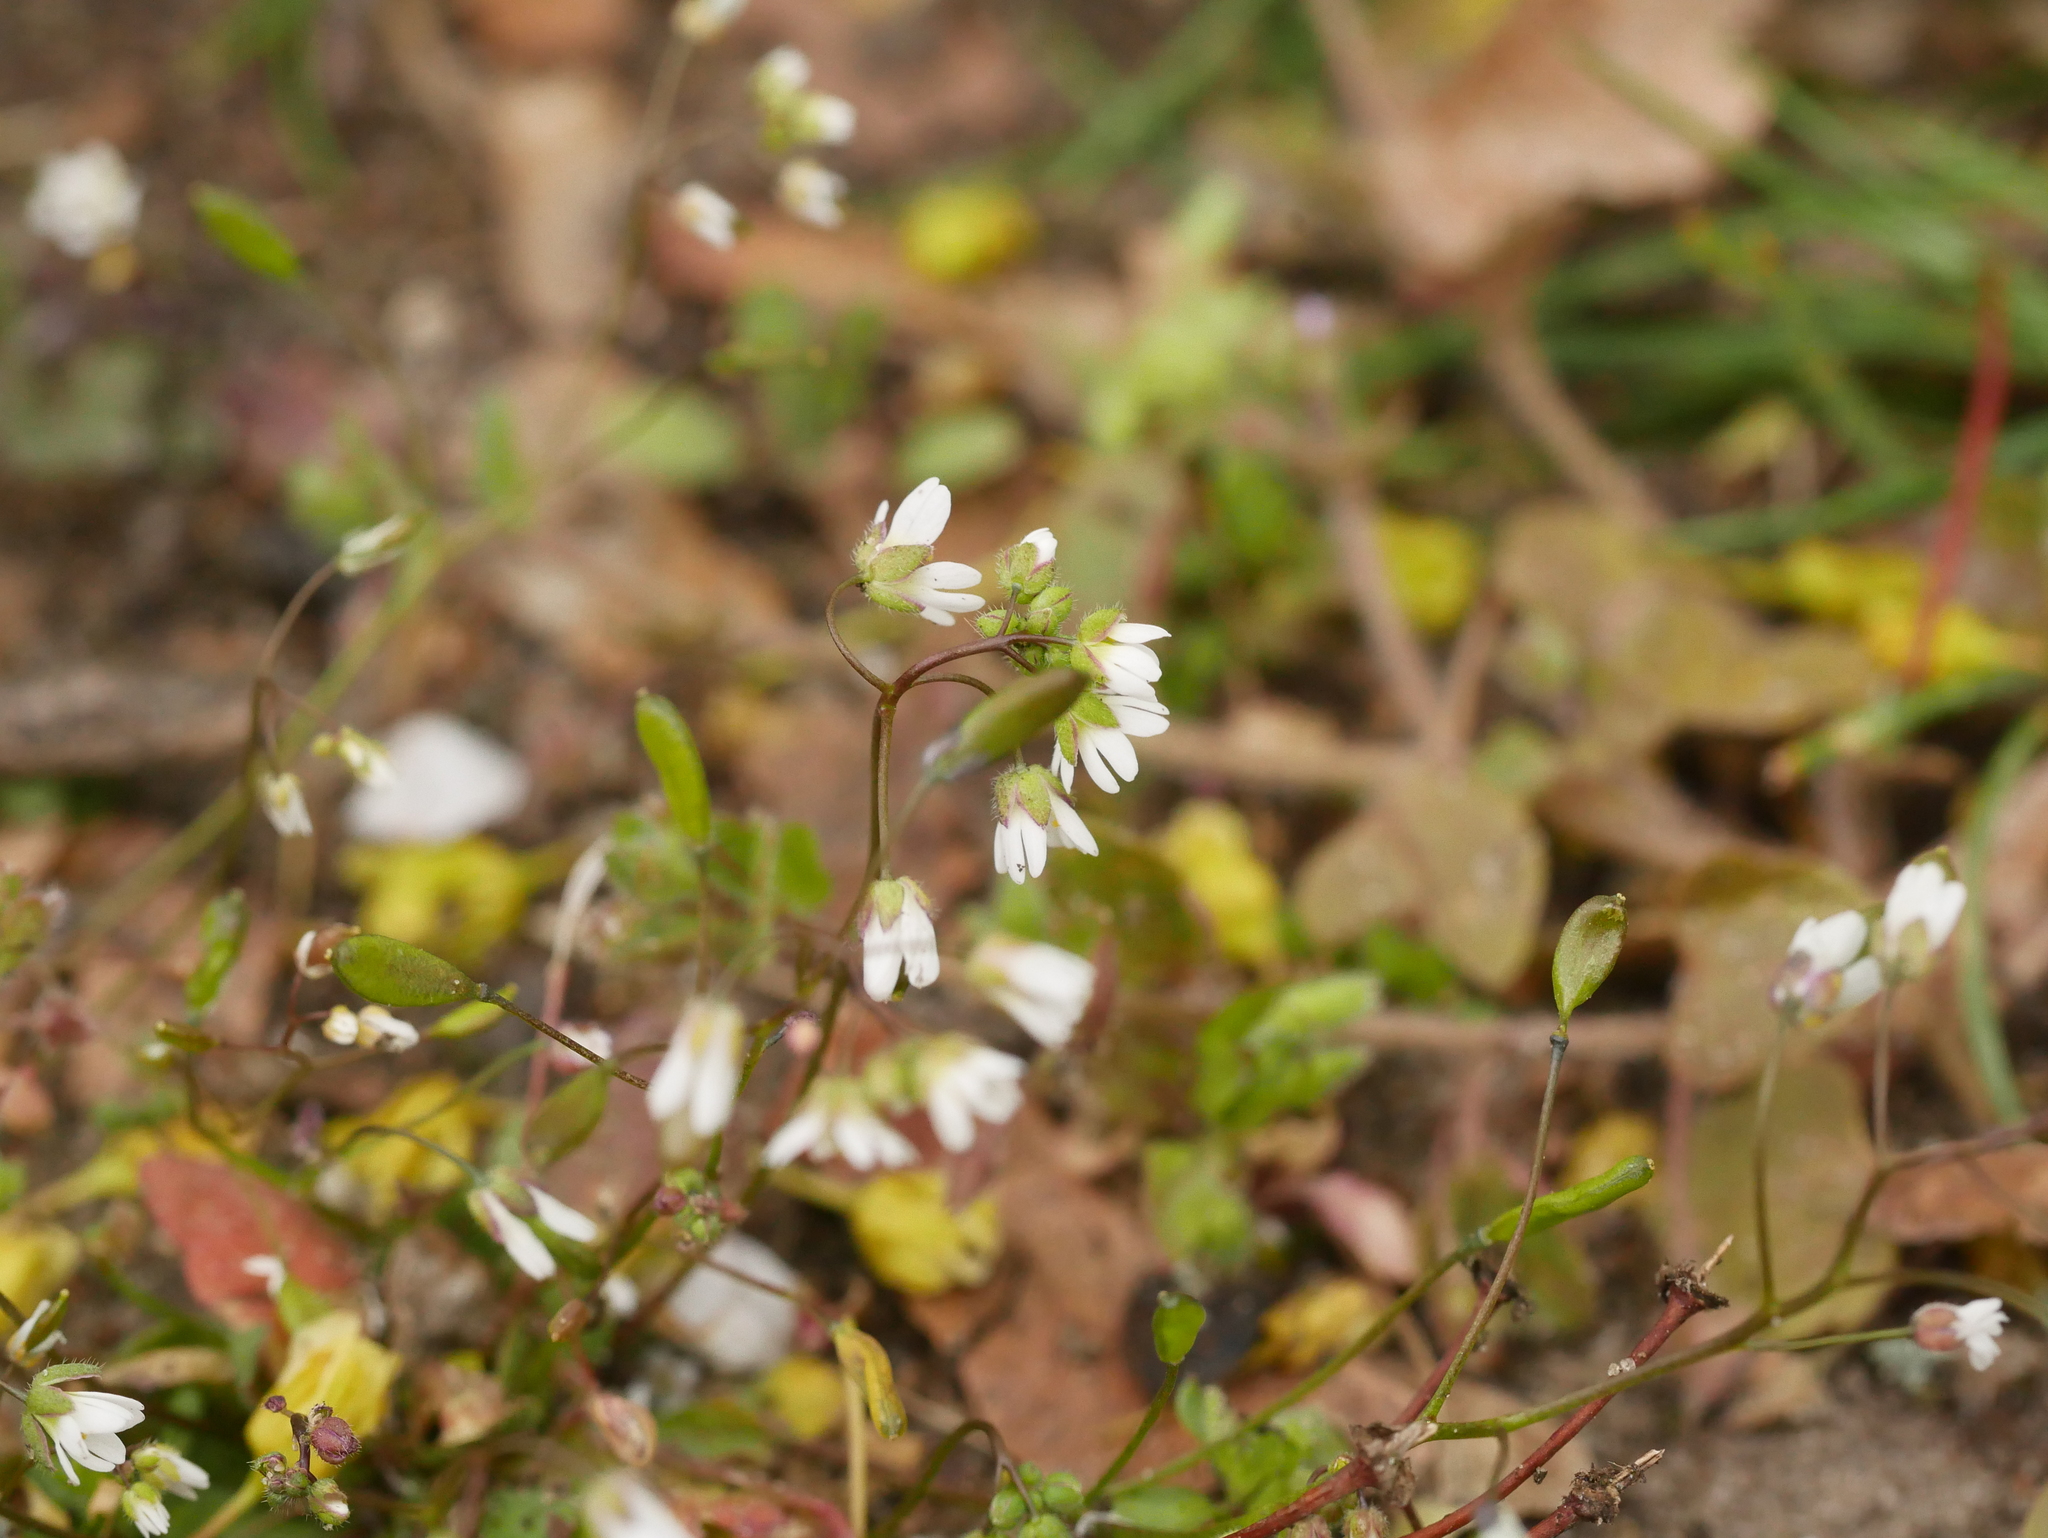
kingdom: Plantae
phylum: Tracheophyta
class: Magnoliopsida
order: Brassicales
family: Brassicaceae
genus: Draba
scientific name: Draba verna
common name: Spring draba
